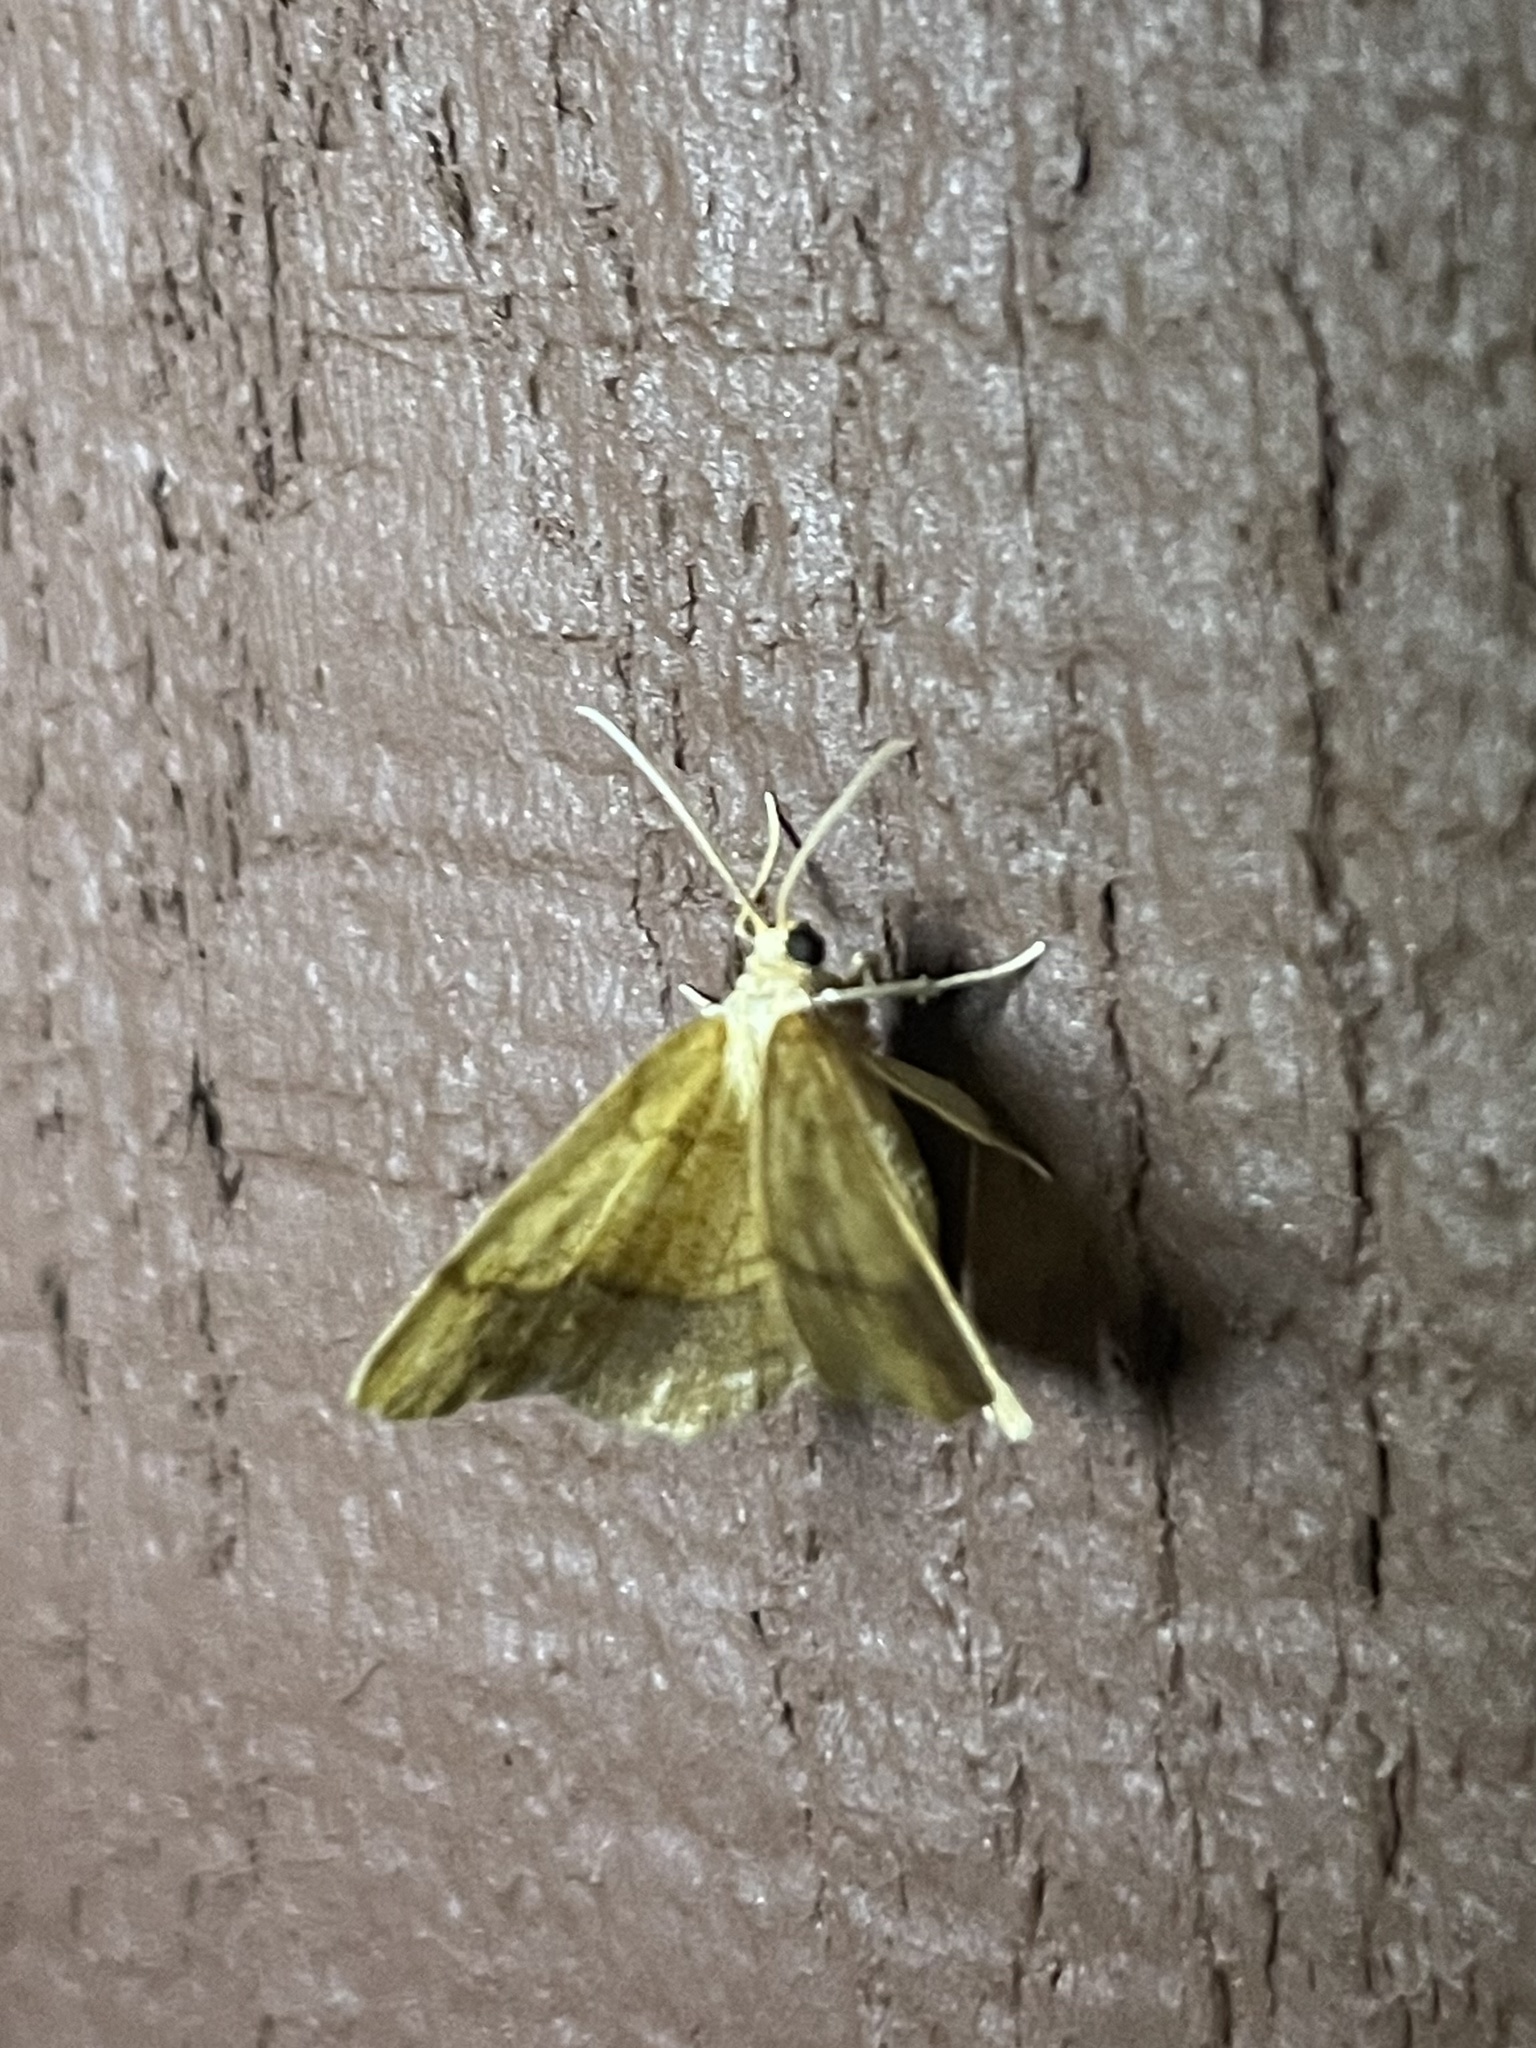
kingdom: Animalia
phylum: Arthropoda
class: Insecta
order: Lepidoptera
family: Geometridae
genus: Nematocampa
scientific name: Nematocampa resistaria
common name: Horned spanworm moth
